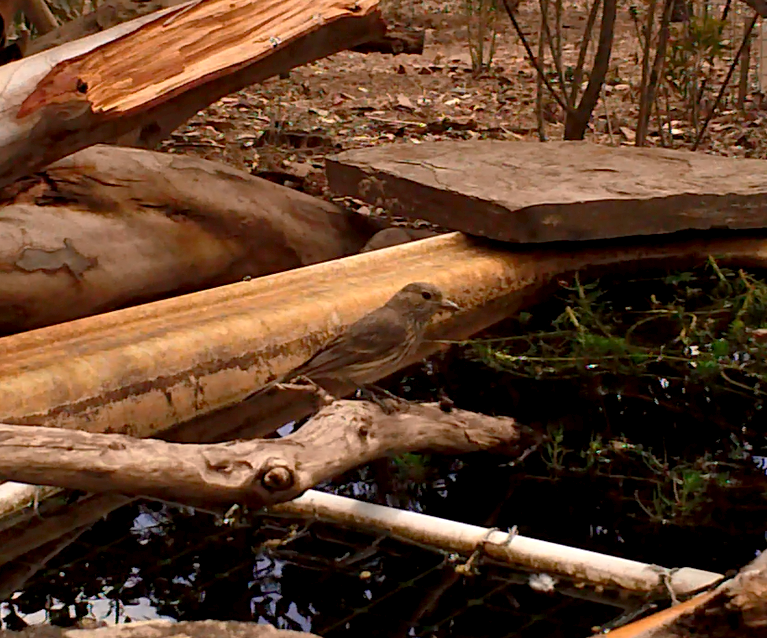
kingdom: Animalia
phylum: Chordata
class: Aves
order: Passeriformes
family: Pachycephalidae
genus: Pachycephala
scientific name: Pachycephala rufiventris
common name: Rufous whistler
